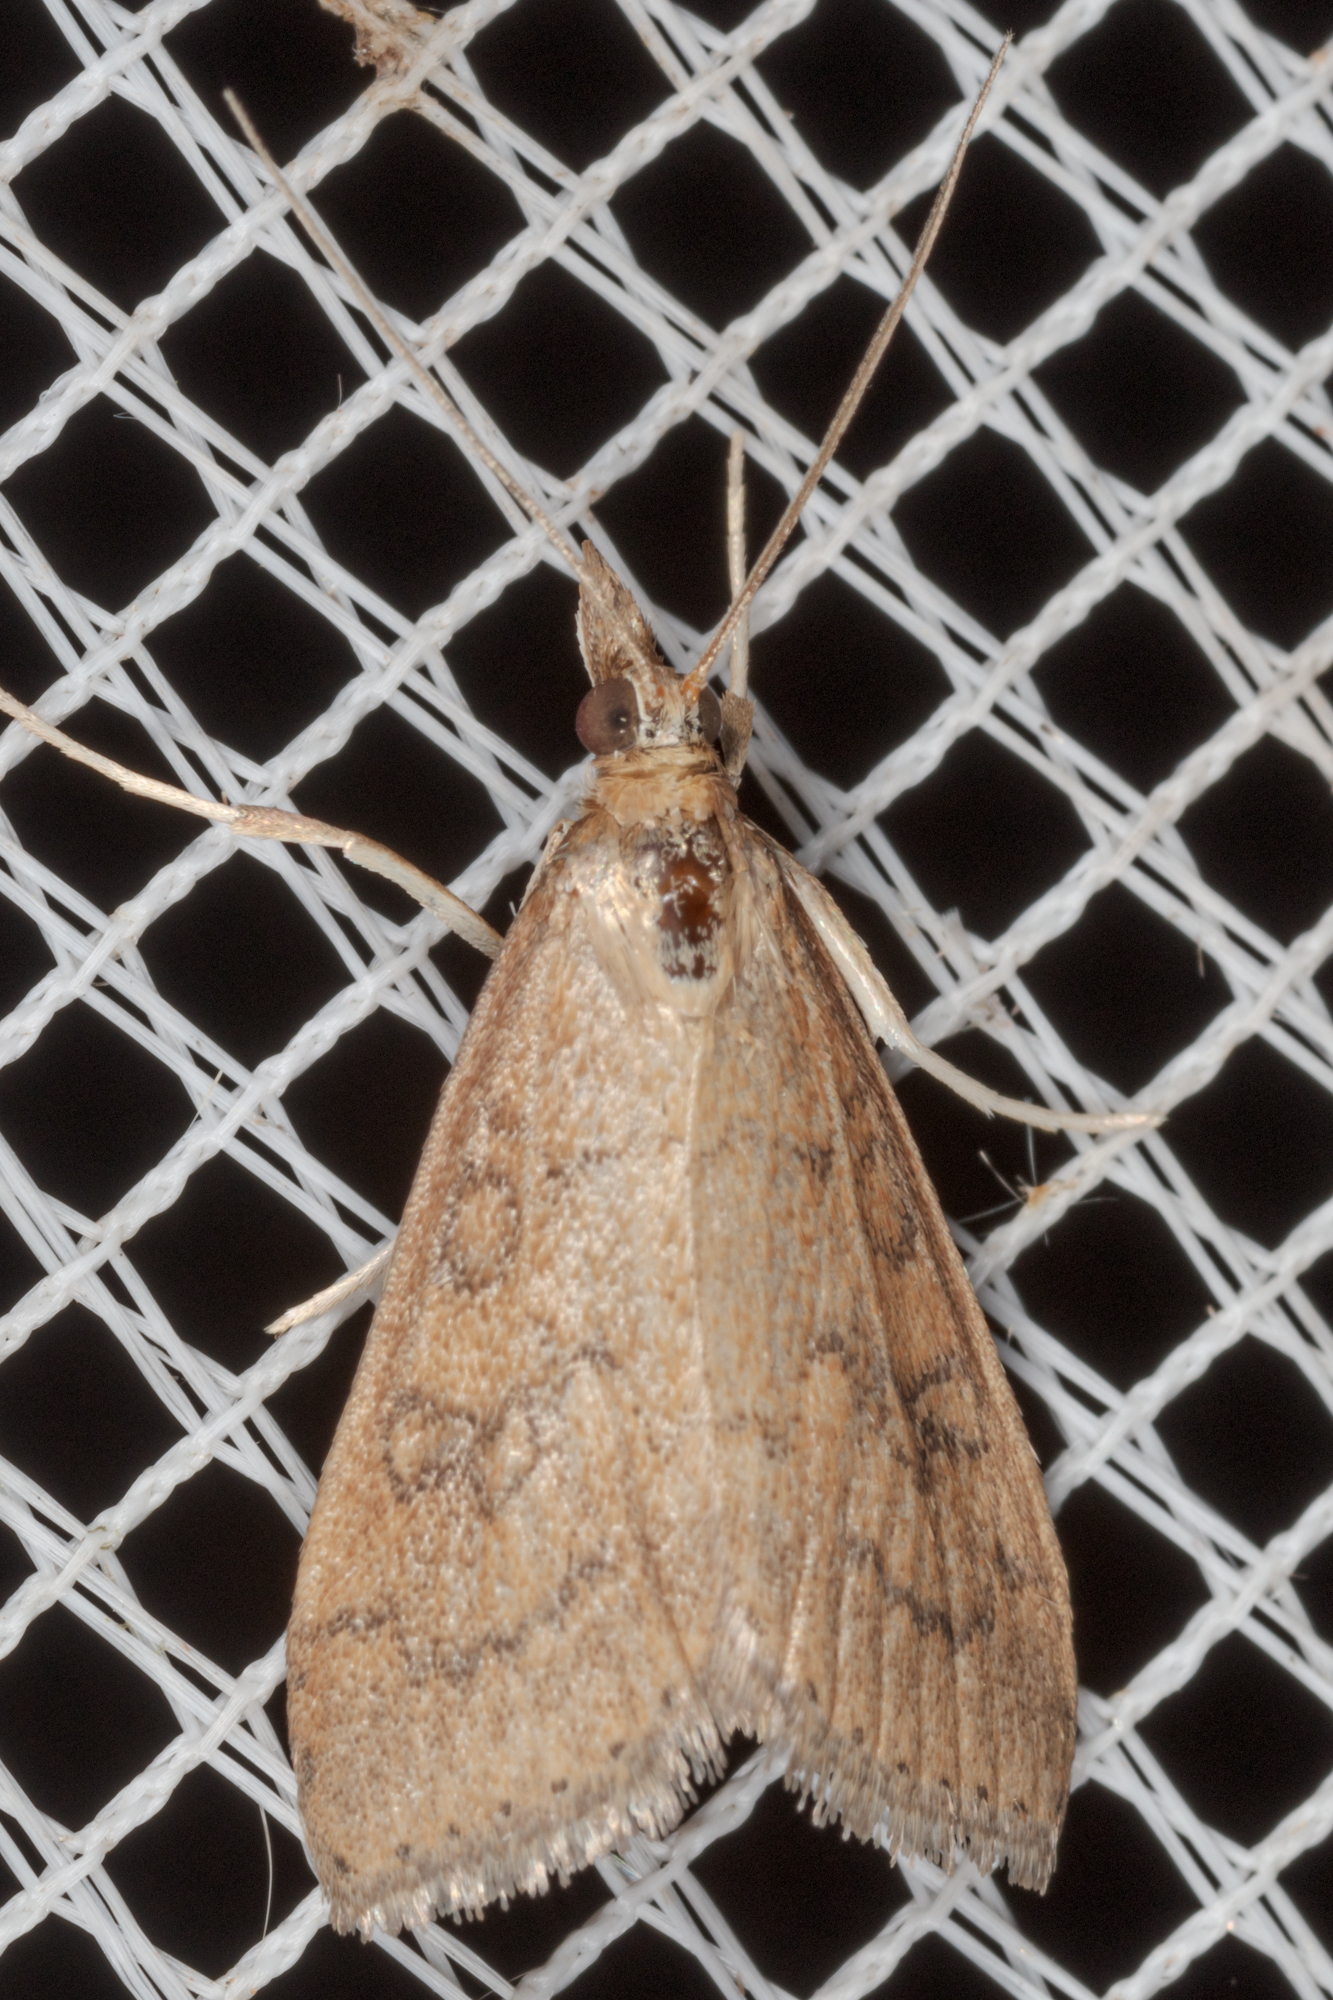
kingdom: Animalia
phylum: Arthropoda
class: Insecta
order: Lepidoptera
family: Crambidae
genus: Udea
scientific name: Udea rubigalis
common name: Celery leaftier moth
